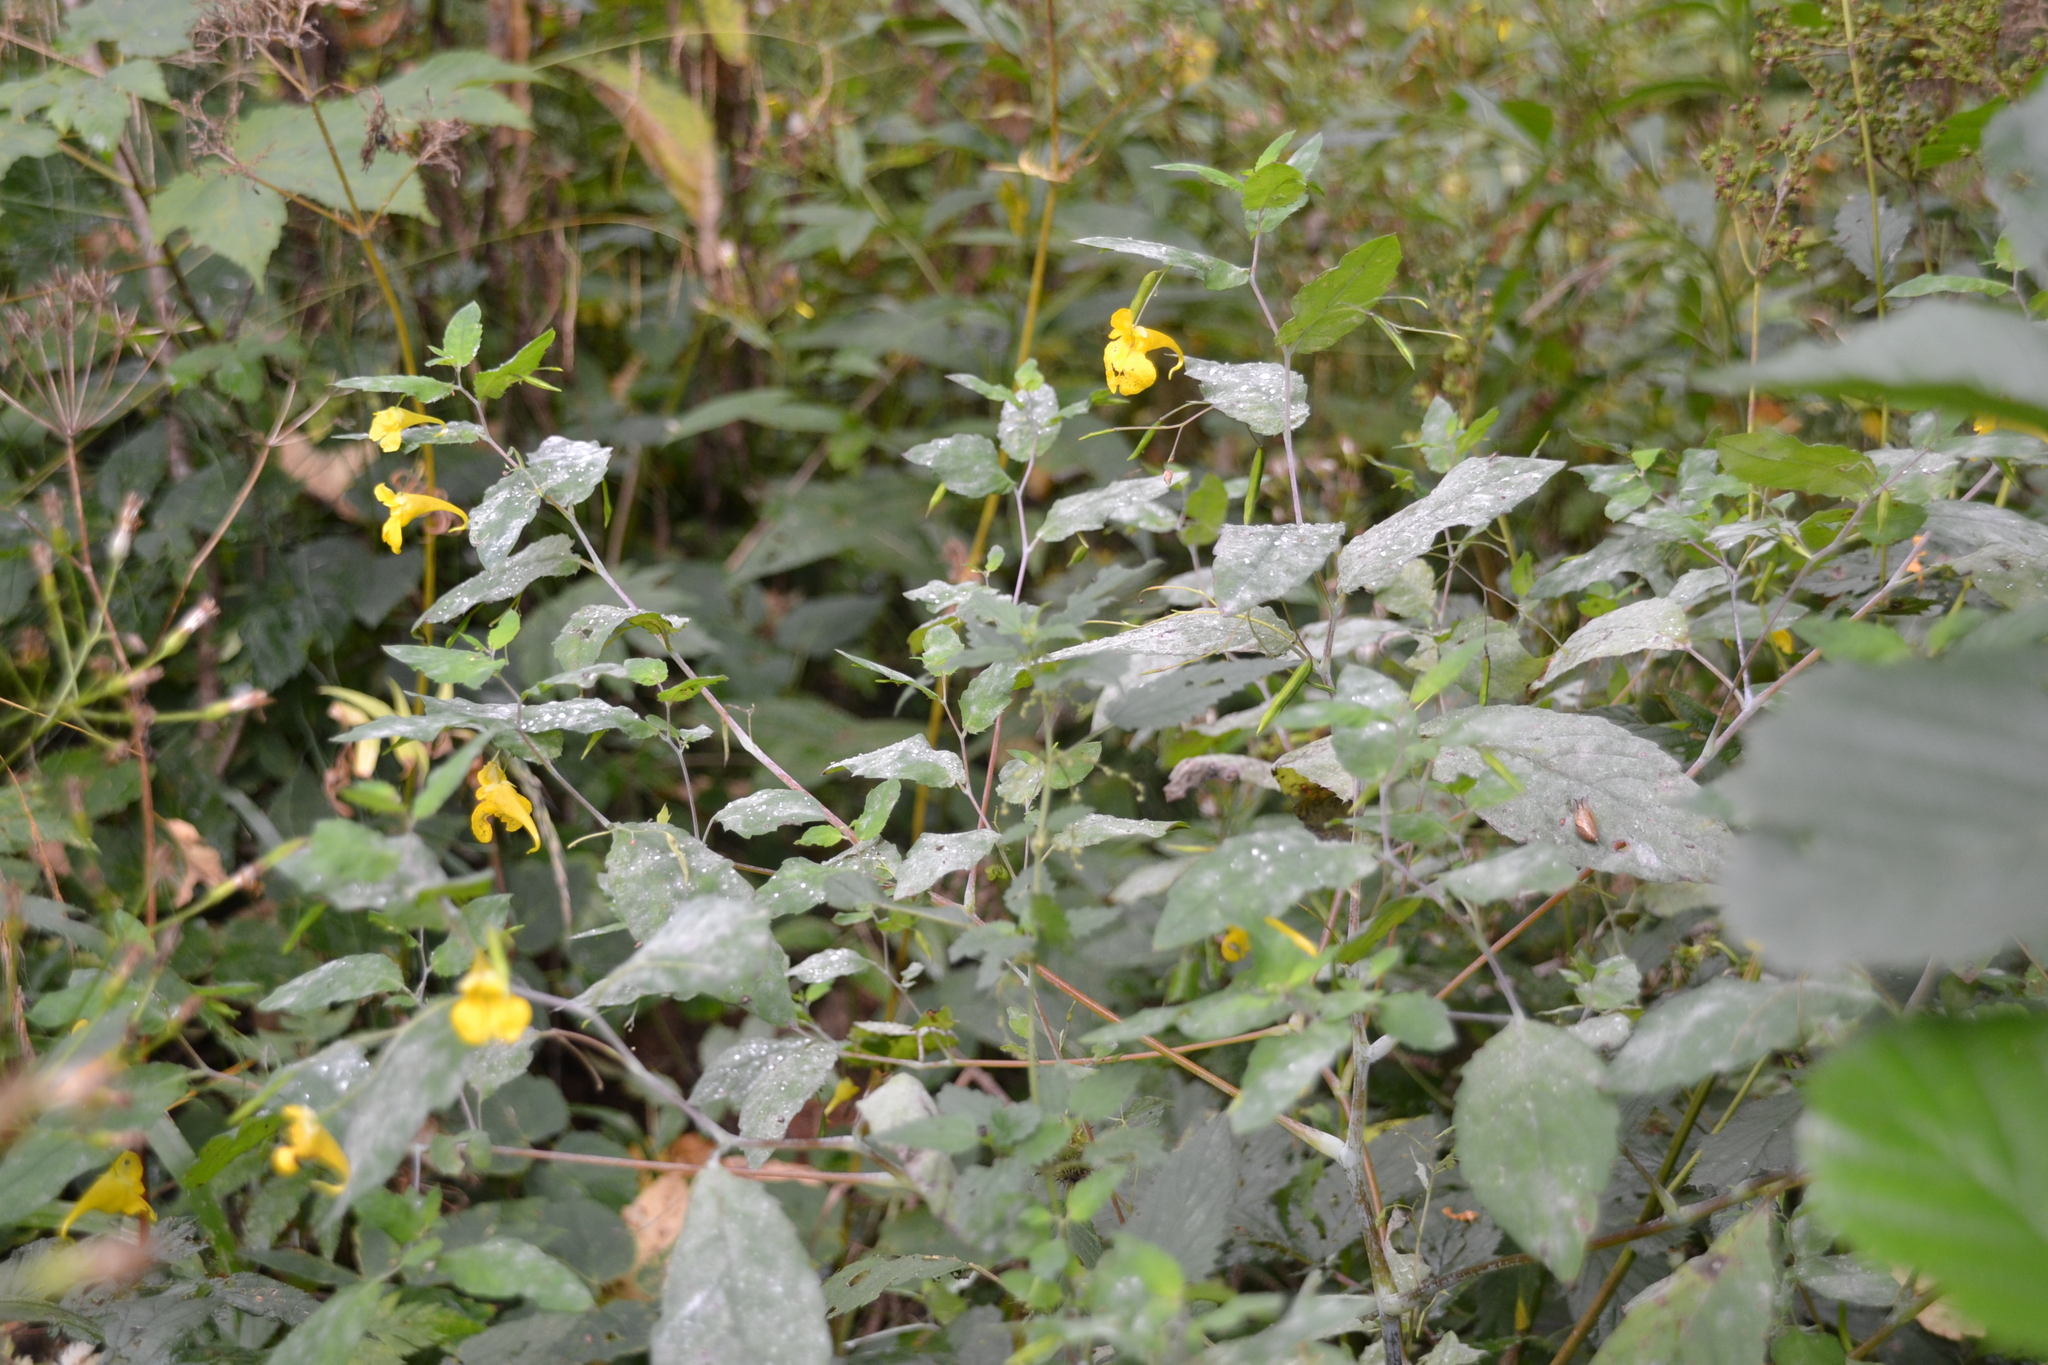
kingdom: Plantae
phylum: Tracheophyta
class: Magnoliopsida
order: Ericales
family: Balsaminaceae
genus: Impatiens
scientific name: Impatiens noli-tangere
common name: Touch-me-not balsam
